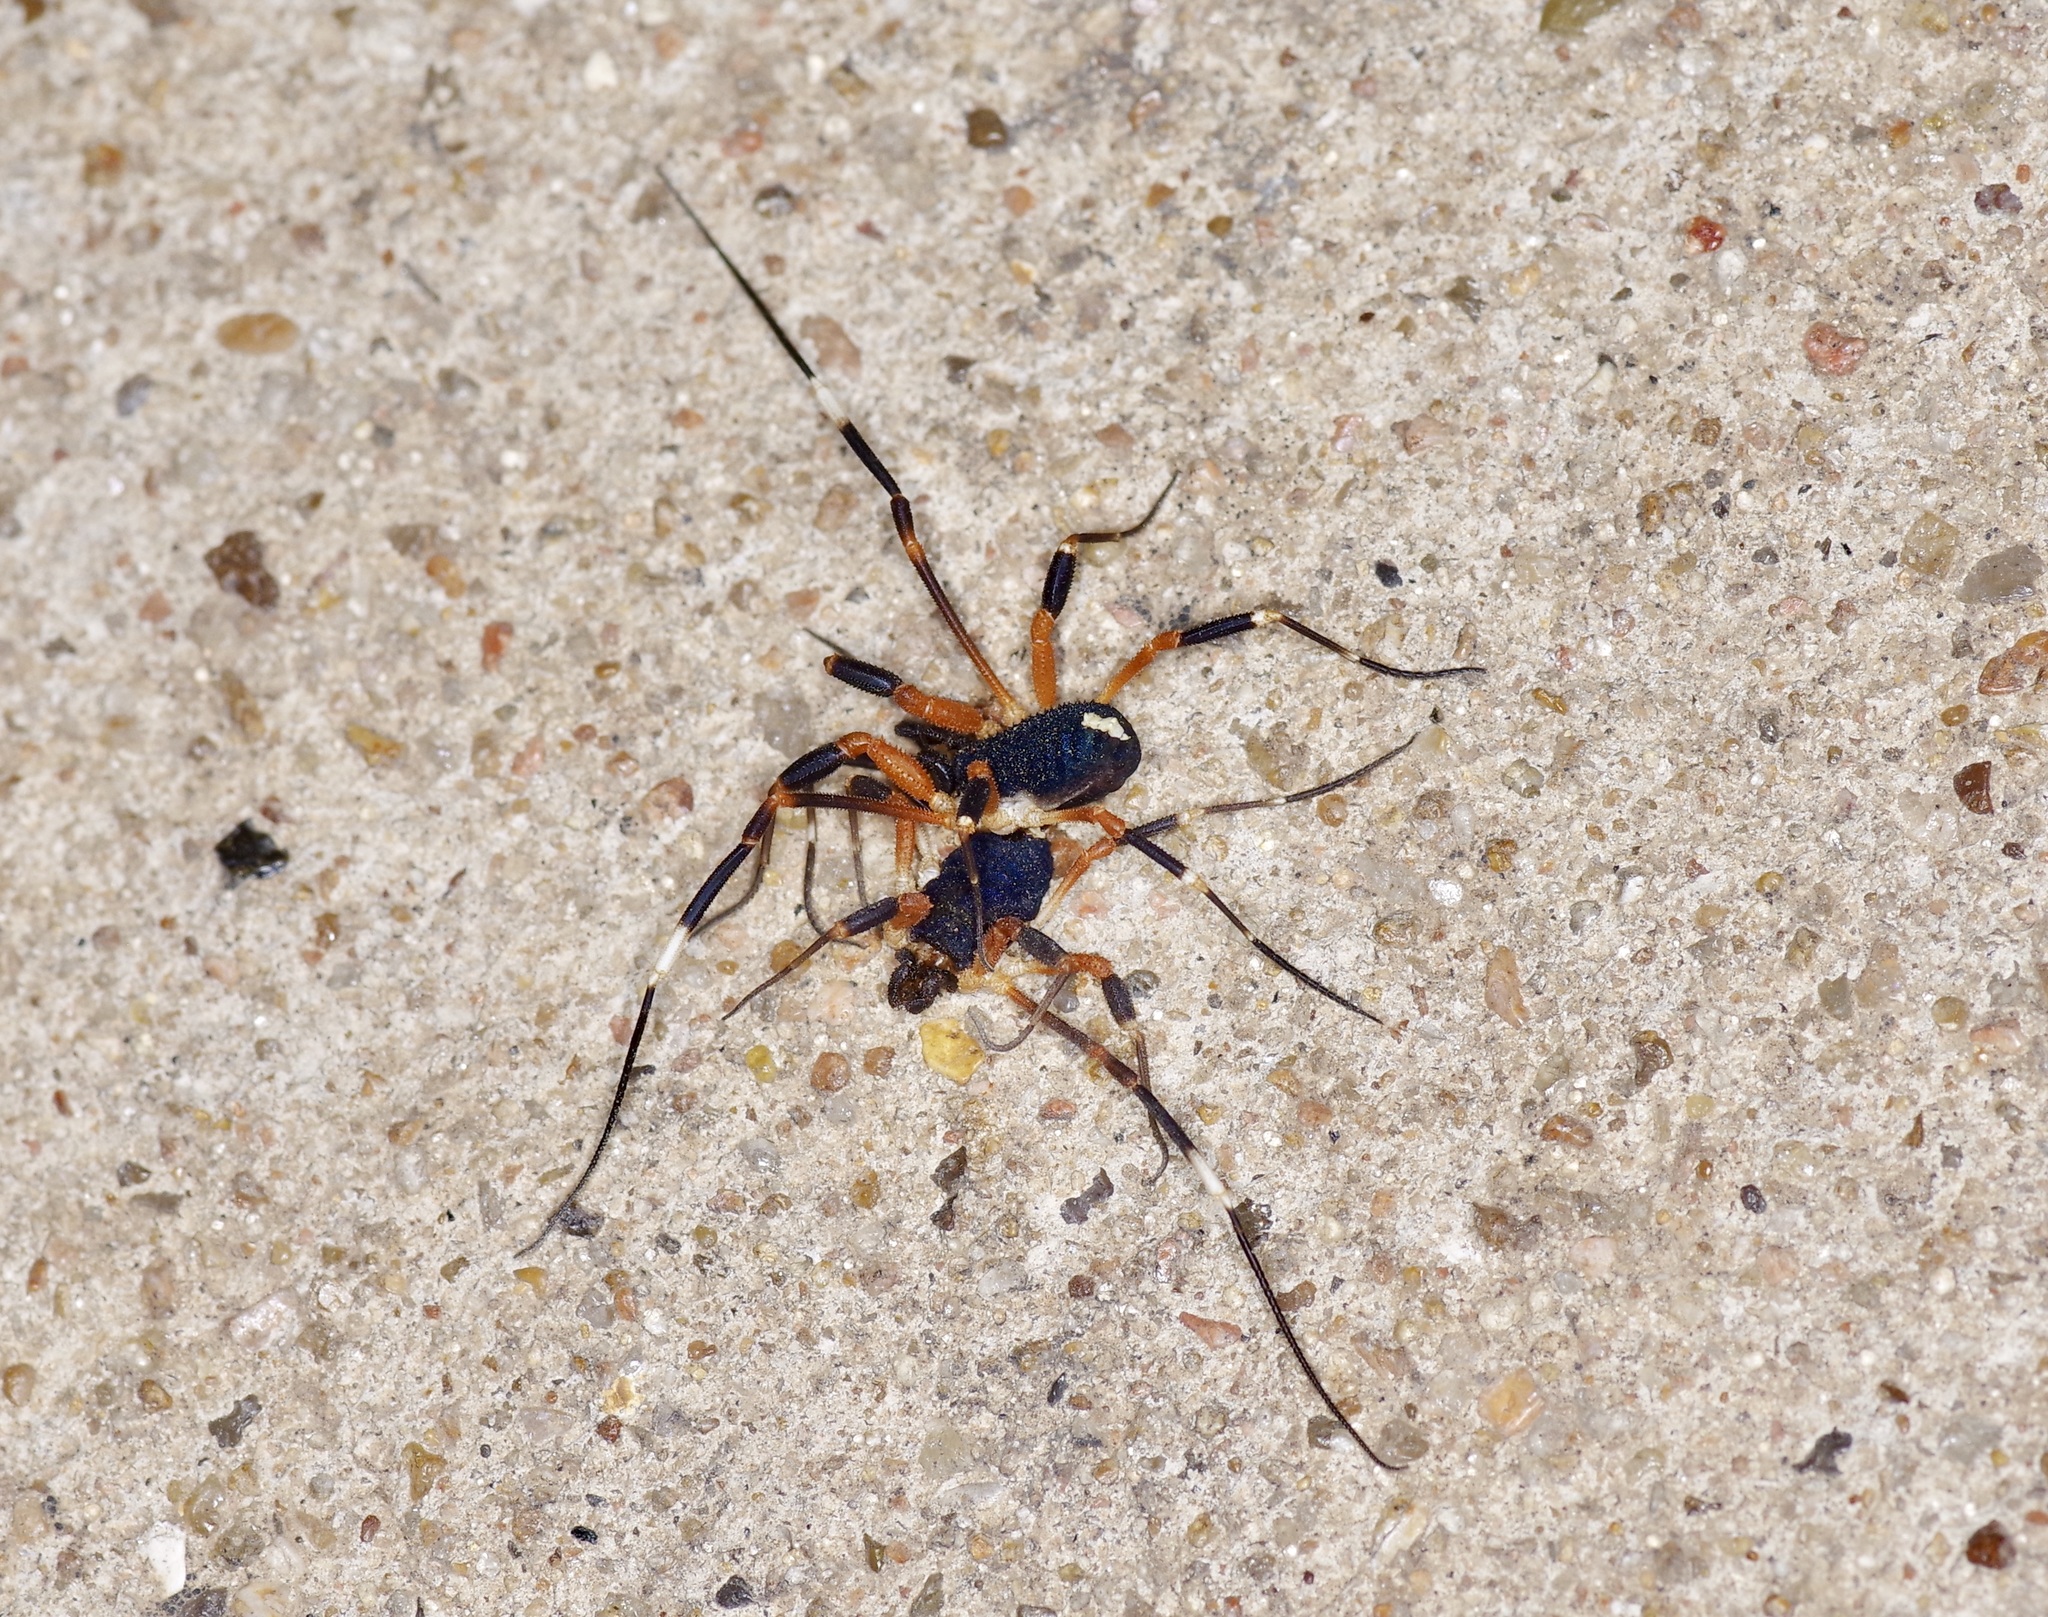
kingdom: Animalia
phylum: Arthropoda
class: Arachnida
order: Opiliones
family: Globipedidae
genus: Dalquestia
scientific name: Dalquestia formosa
